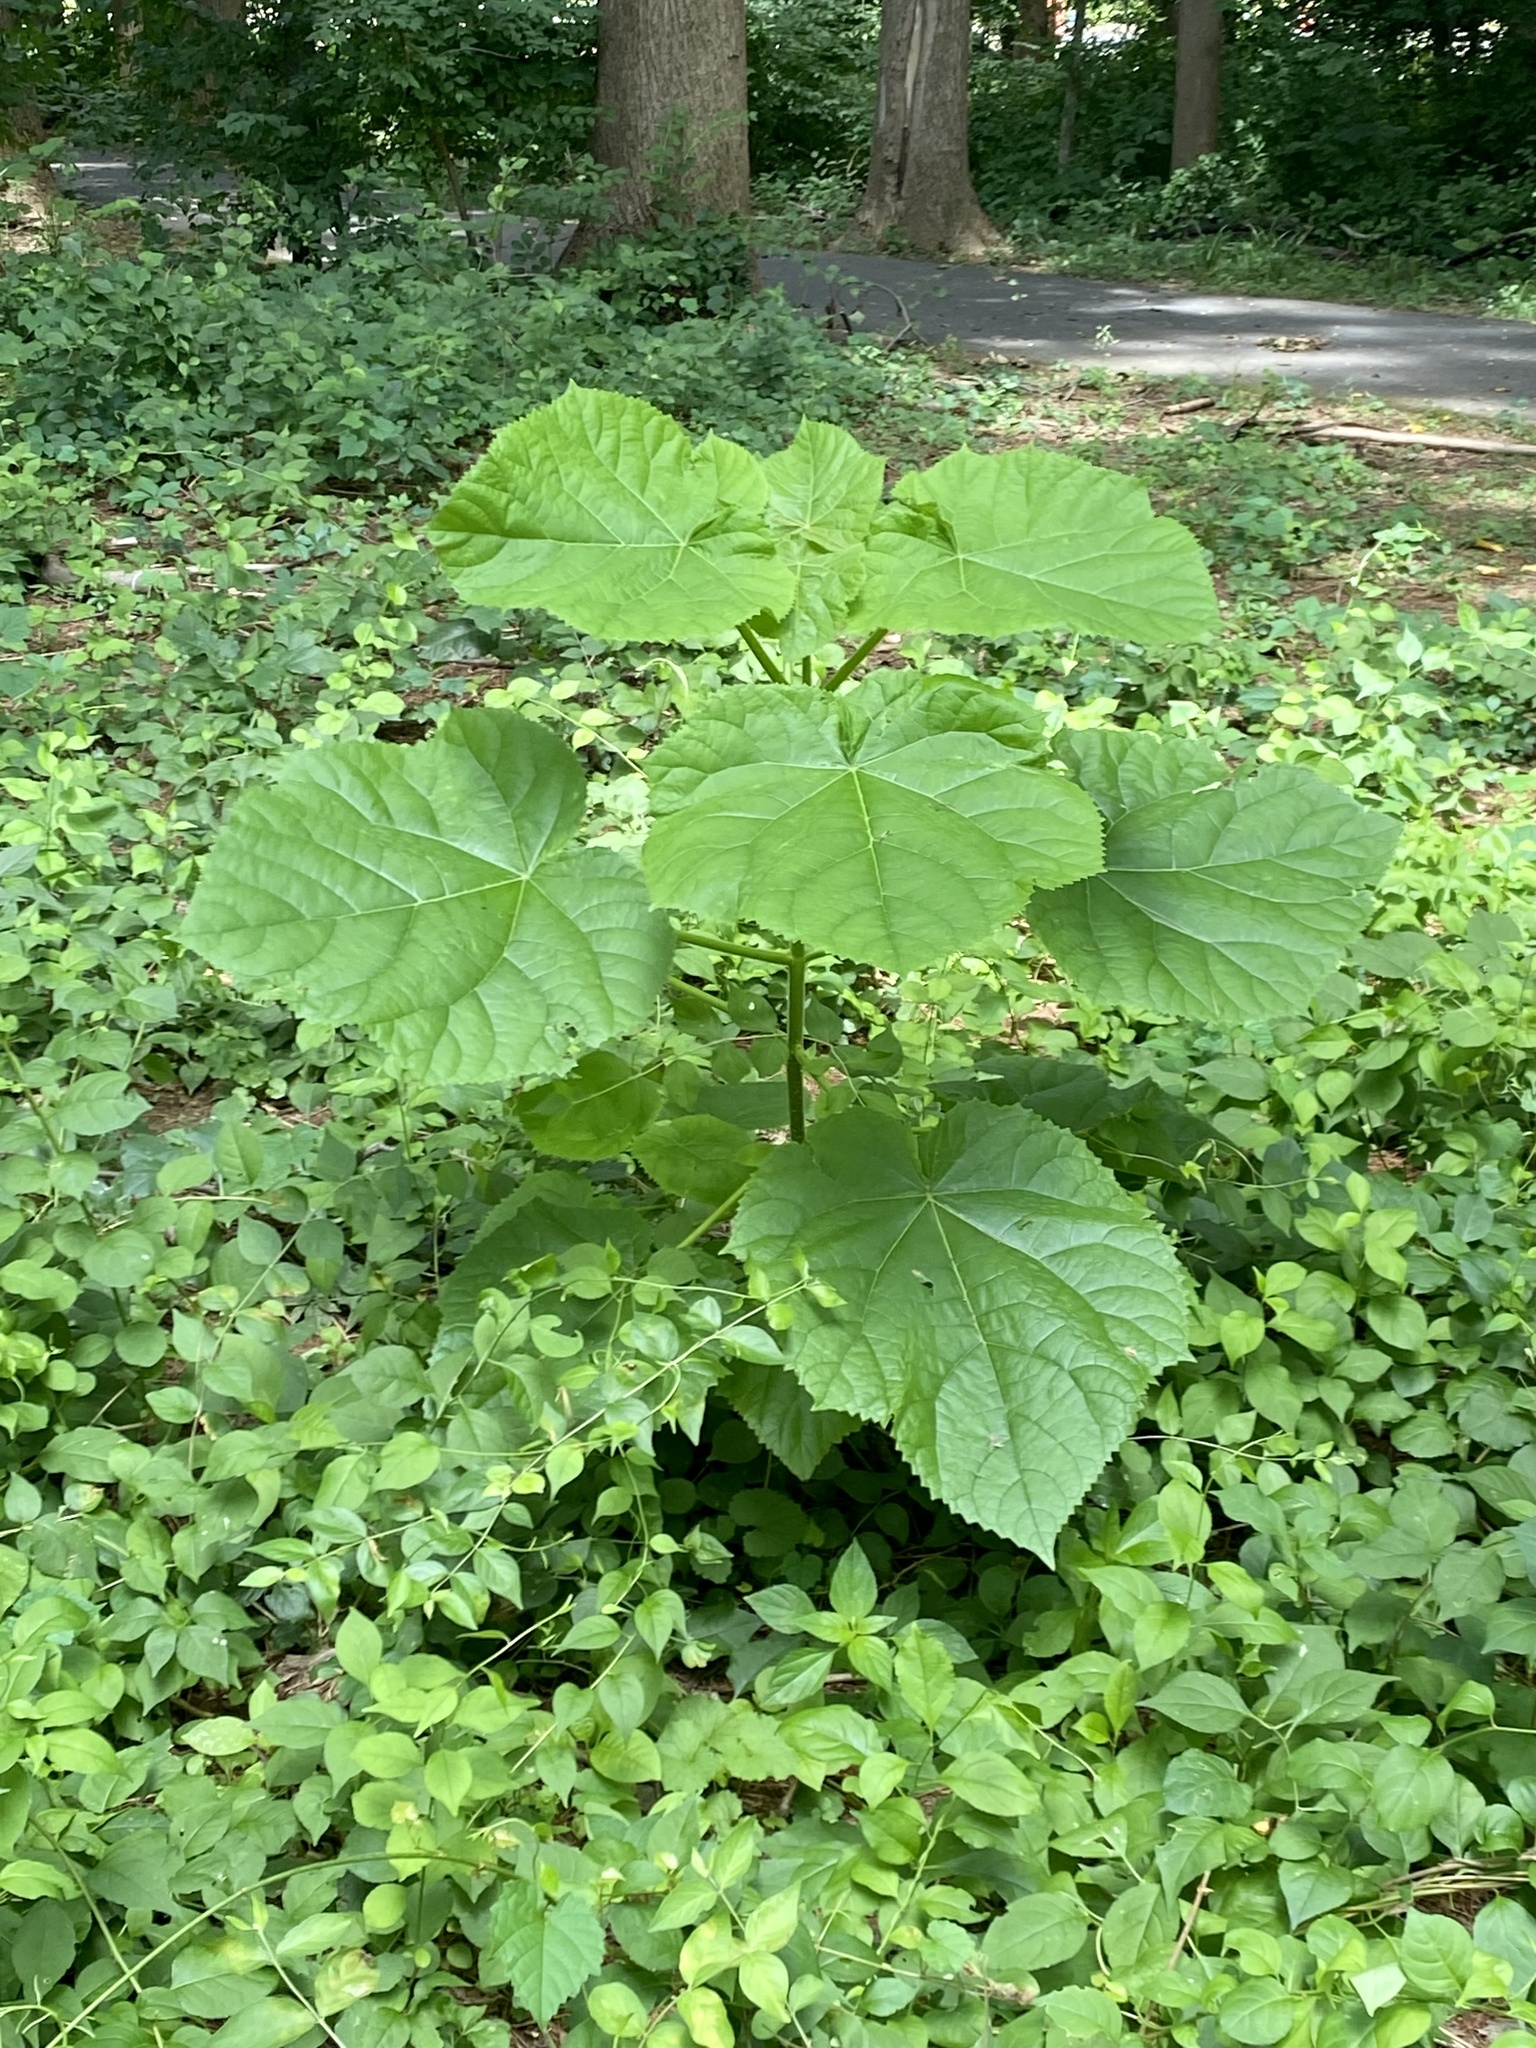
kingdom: Plantae
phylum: Tracheophyta
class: Magnoliopsida
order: Lamiales
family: Paulowniaceae
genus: Paulownia
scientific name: Paulownia tomentosa
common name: Foxglove-tree
